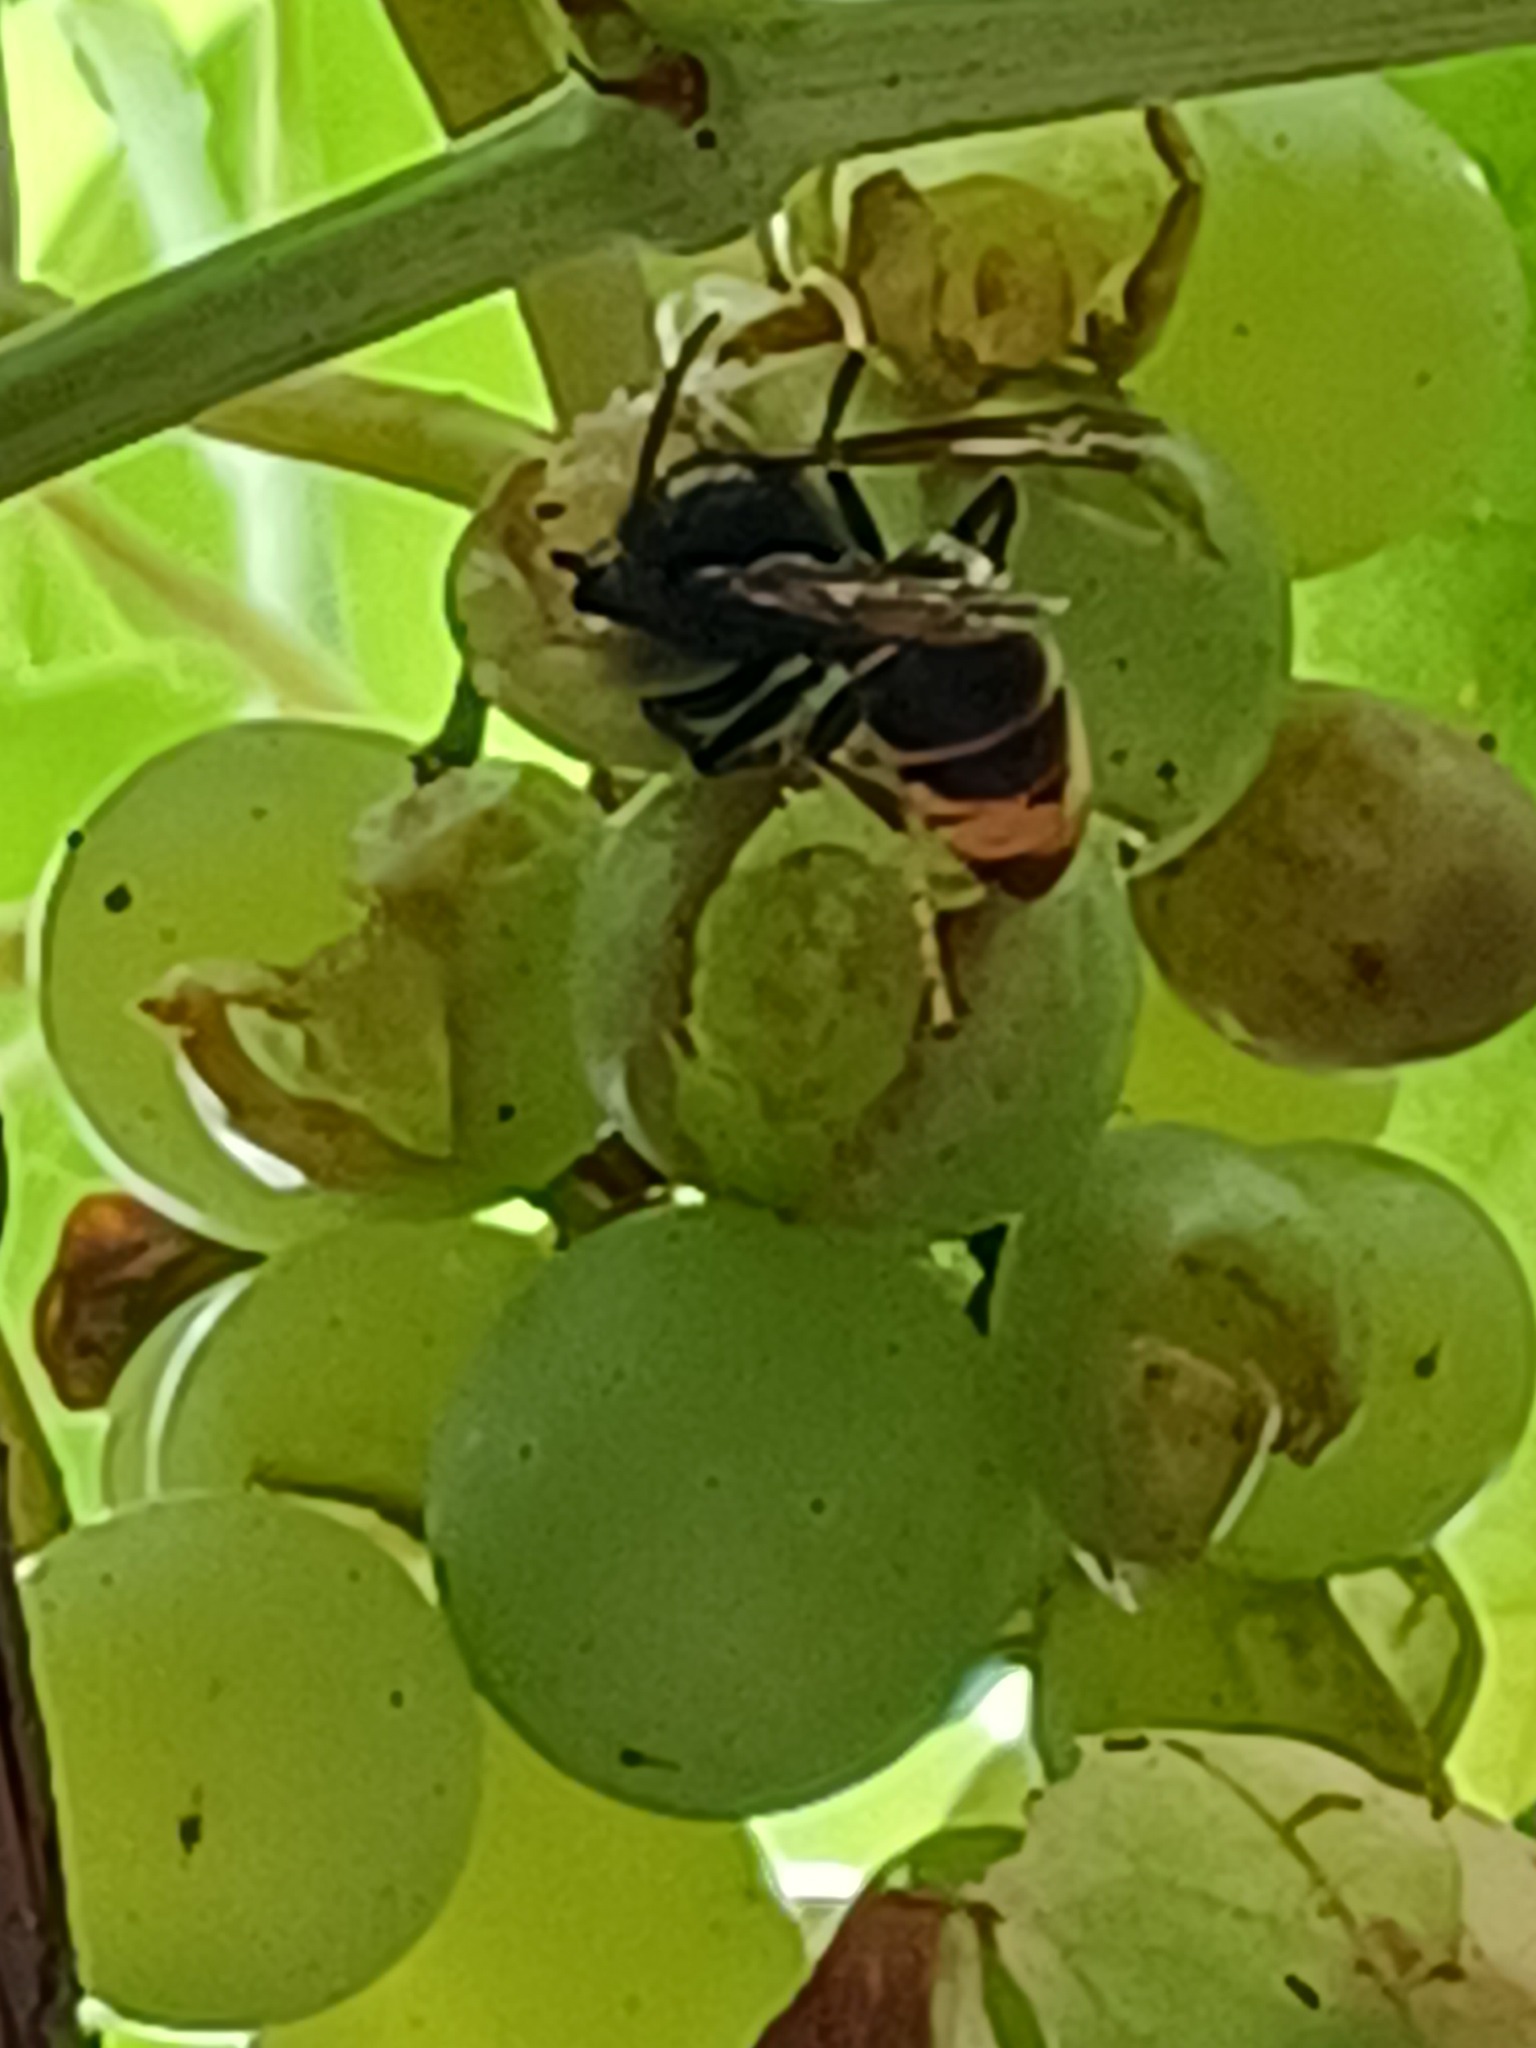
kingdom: Animalia
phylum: Arthropoda
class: Insecta
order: Hymenoptera
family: Vespidae
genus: Vespa
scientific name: Vespa velutina
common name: Asian hornet
